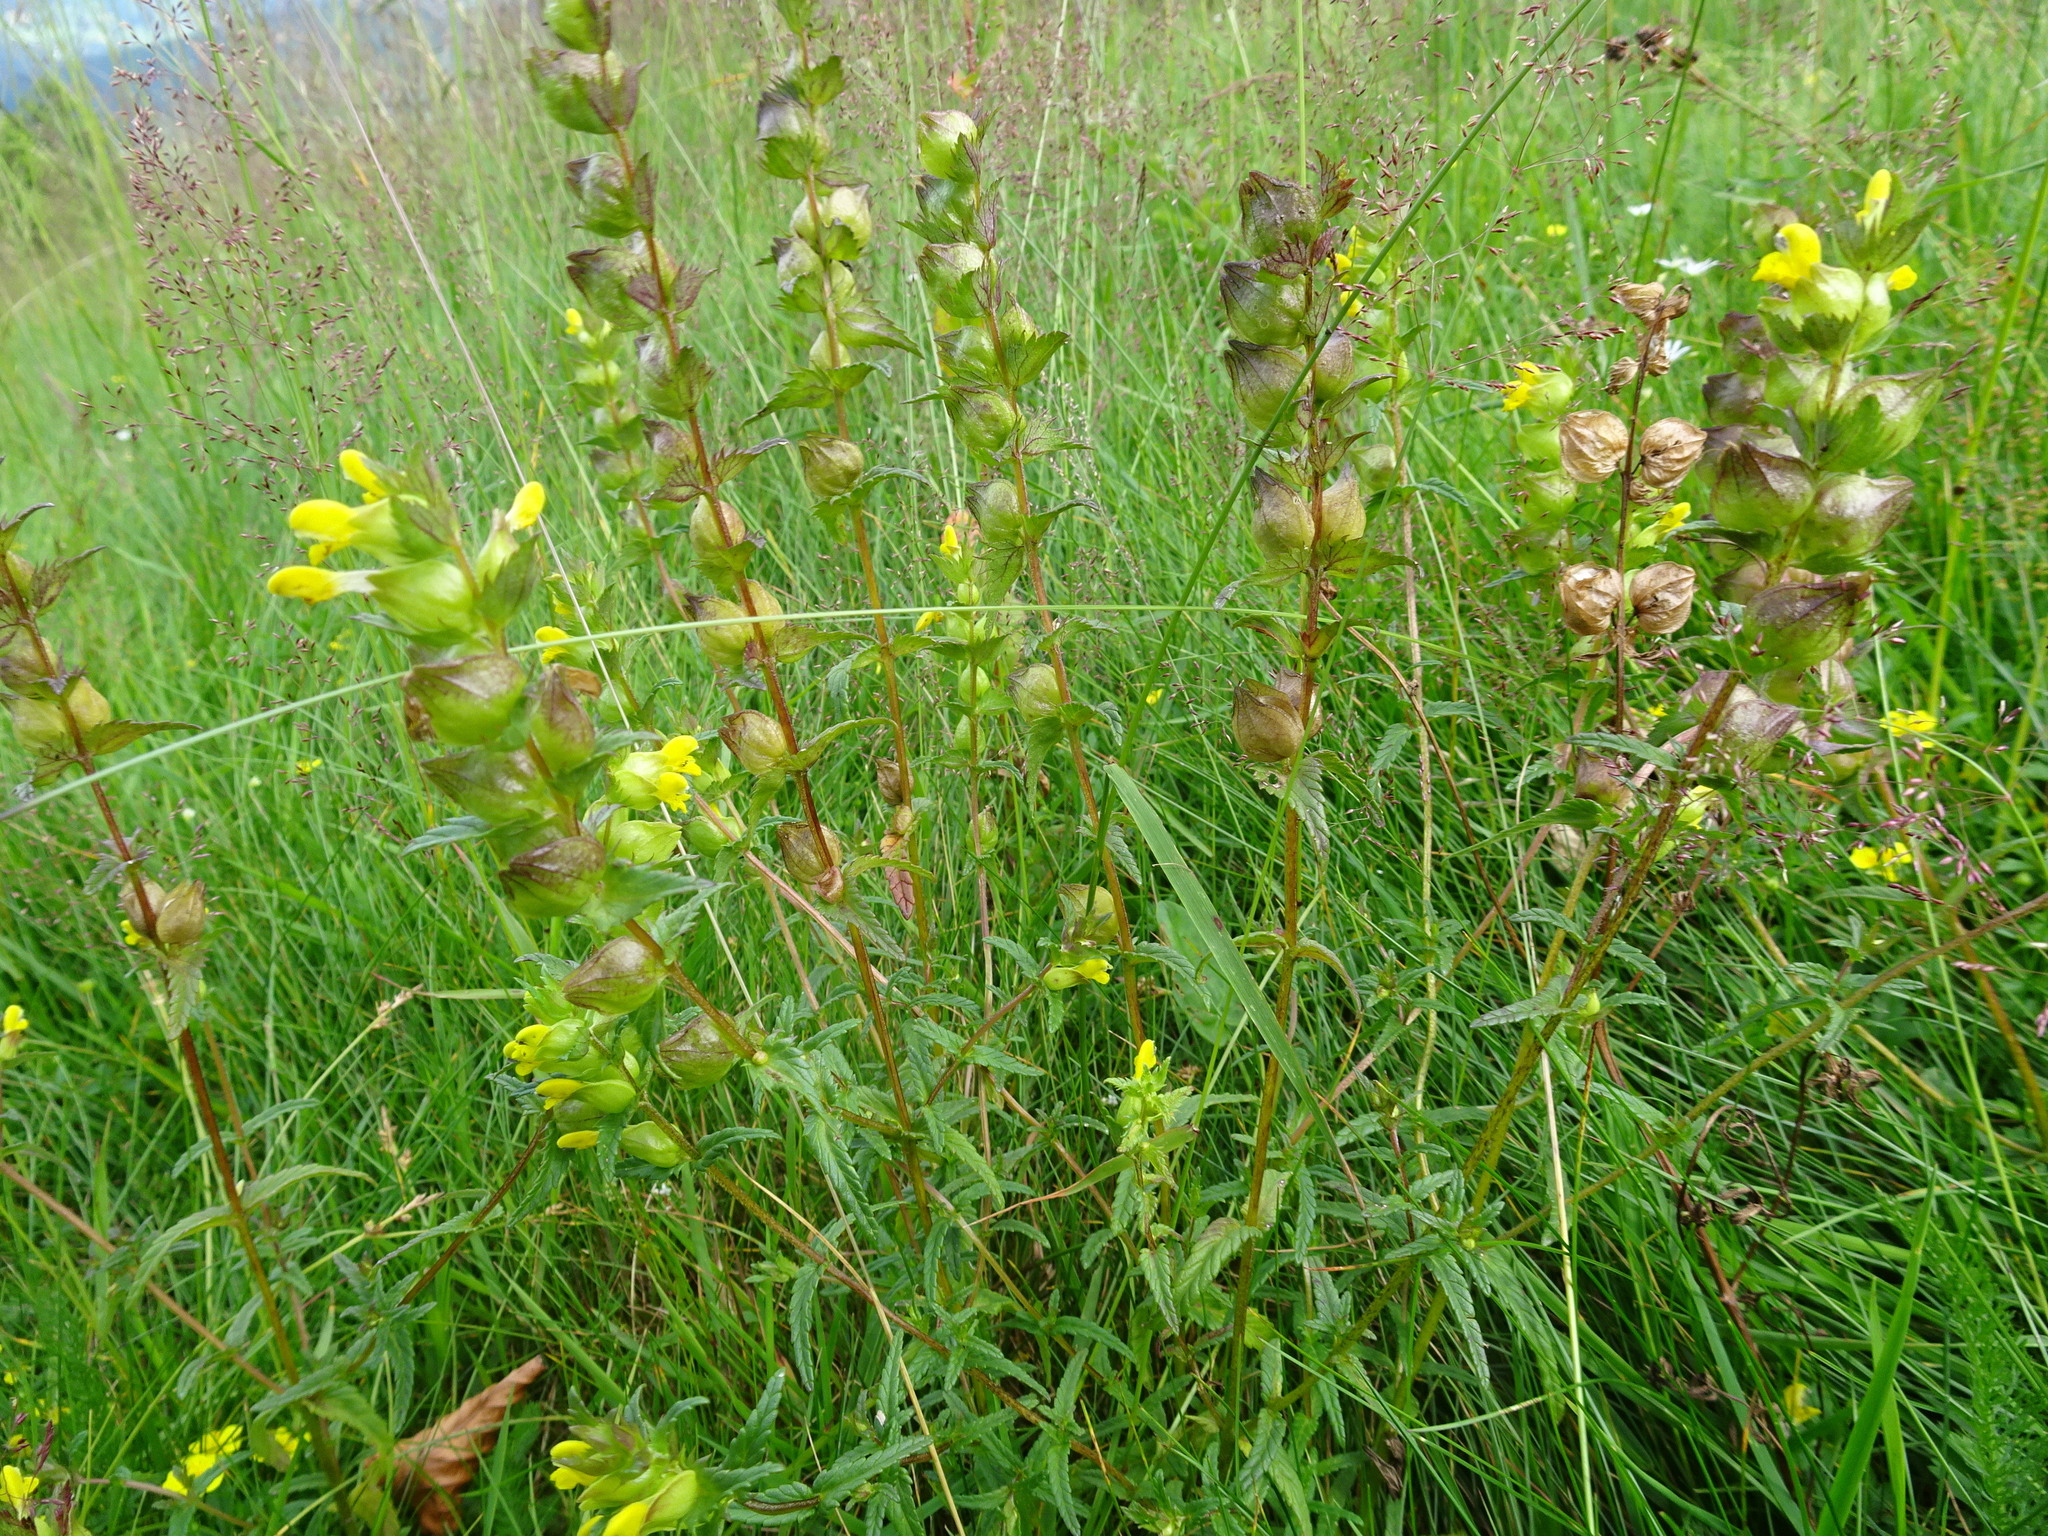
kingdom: Plantae
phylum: Tracheophyta
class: Magnoliopsida
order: Lamiales
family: Orobanchaceae
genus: Rhinanthus
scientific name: Rhinanthus minor
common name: Yellow-rattle
